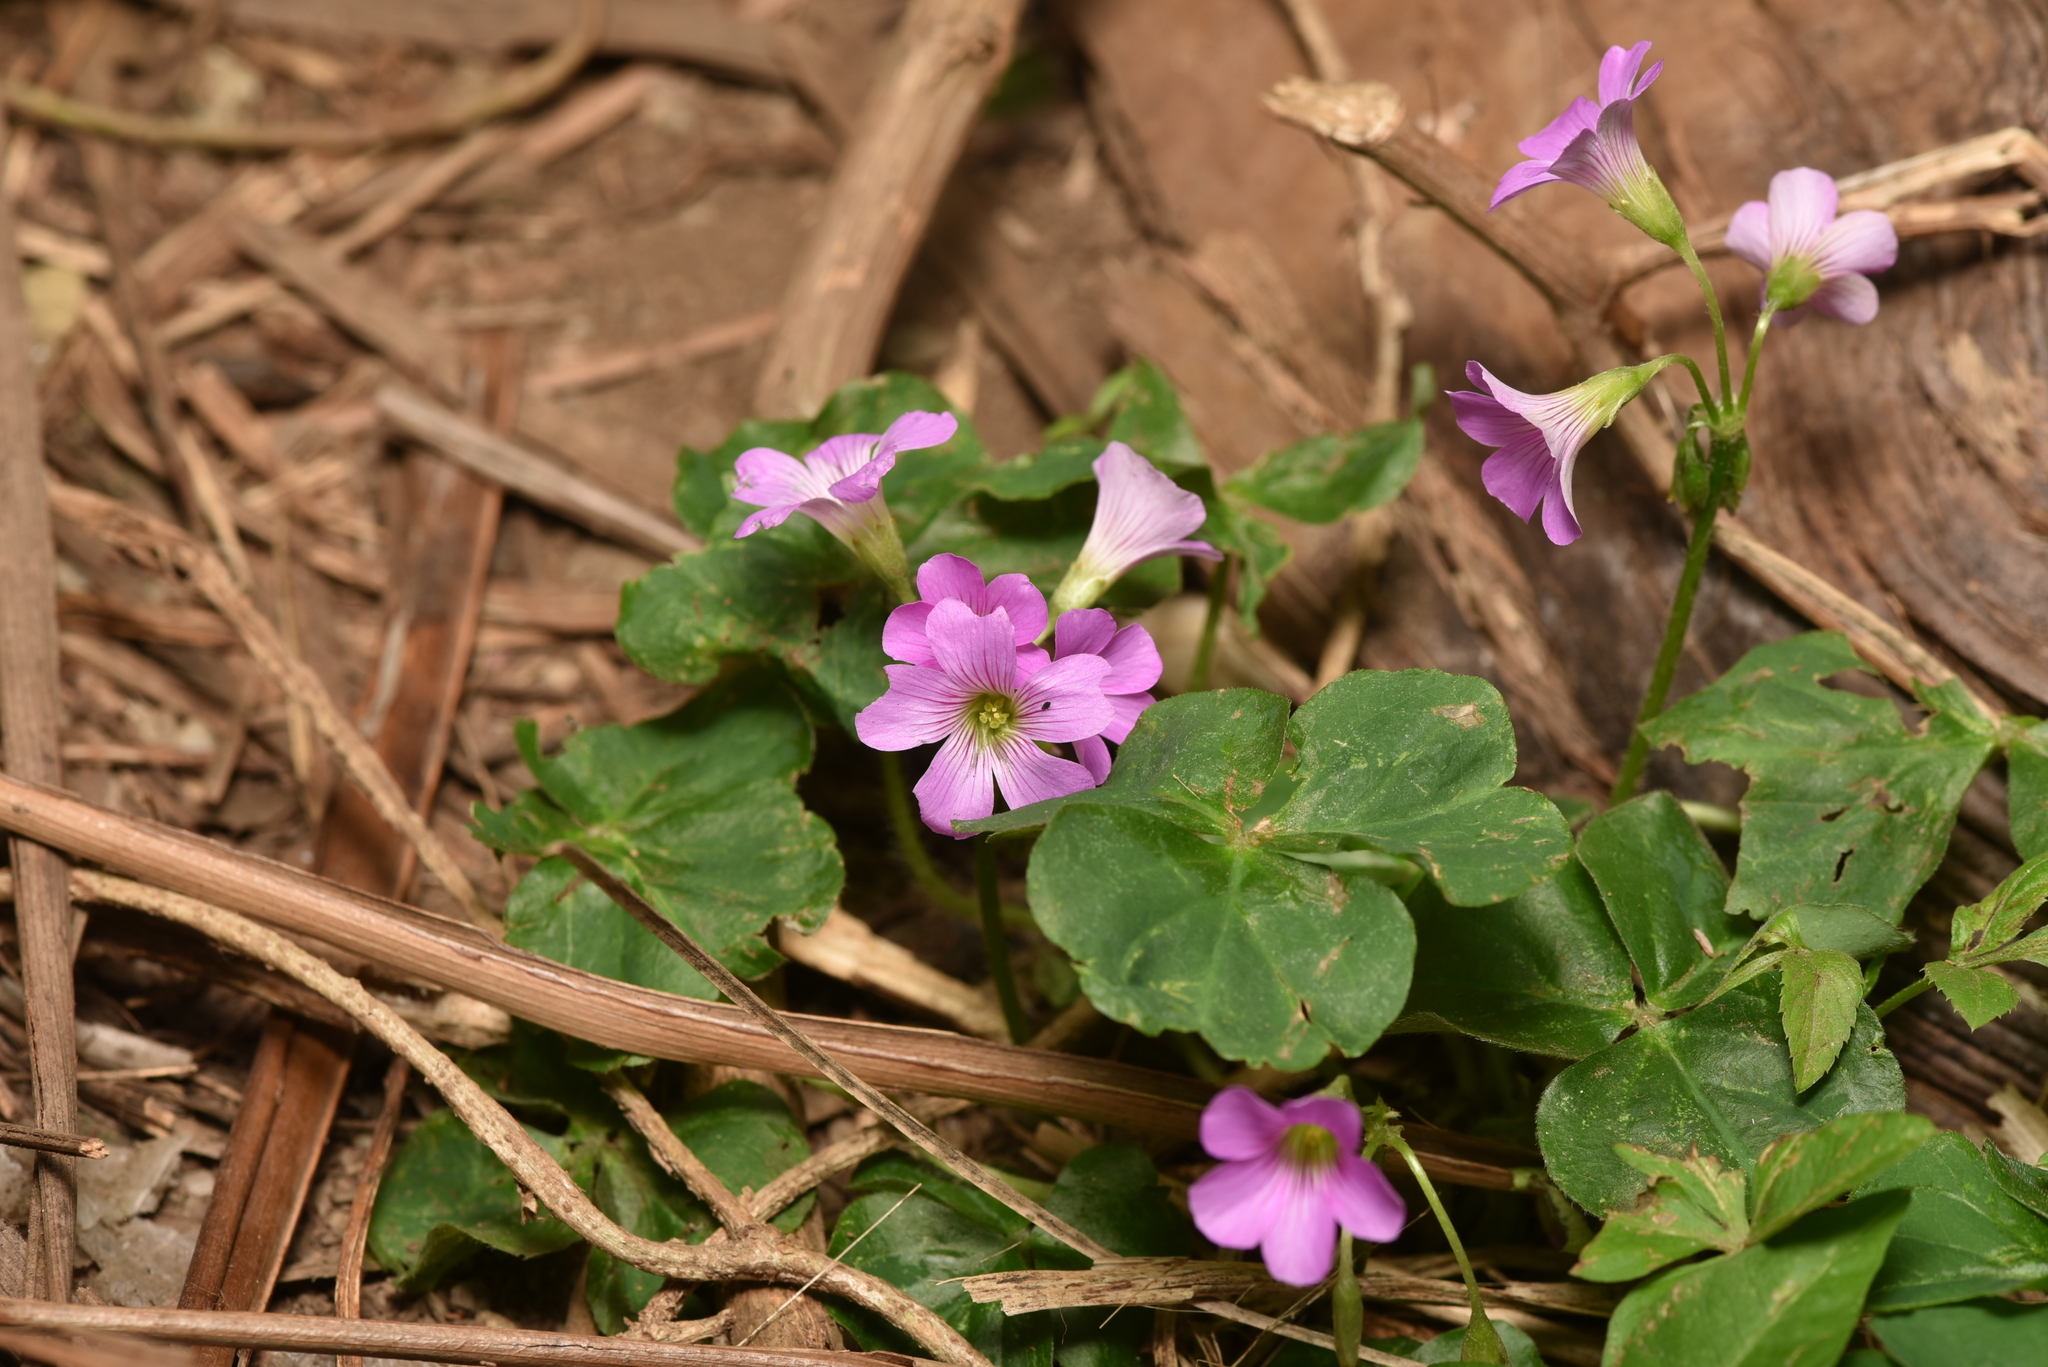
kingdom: Plantae
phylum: Tracheophyta
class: Magnoliopsida
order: Oxalidales
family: Oxalidaceae
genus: Oxalis
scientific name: Oxalis debilis
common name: Large-flowered pink-sorrel
